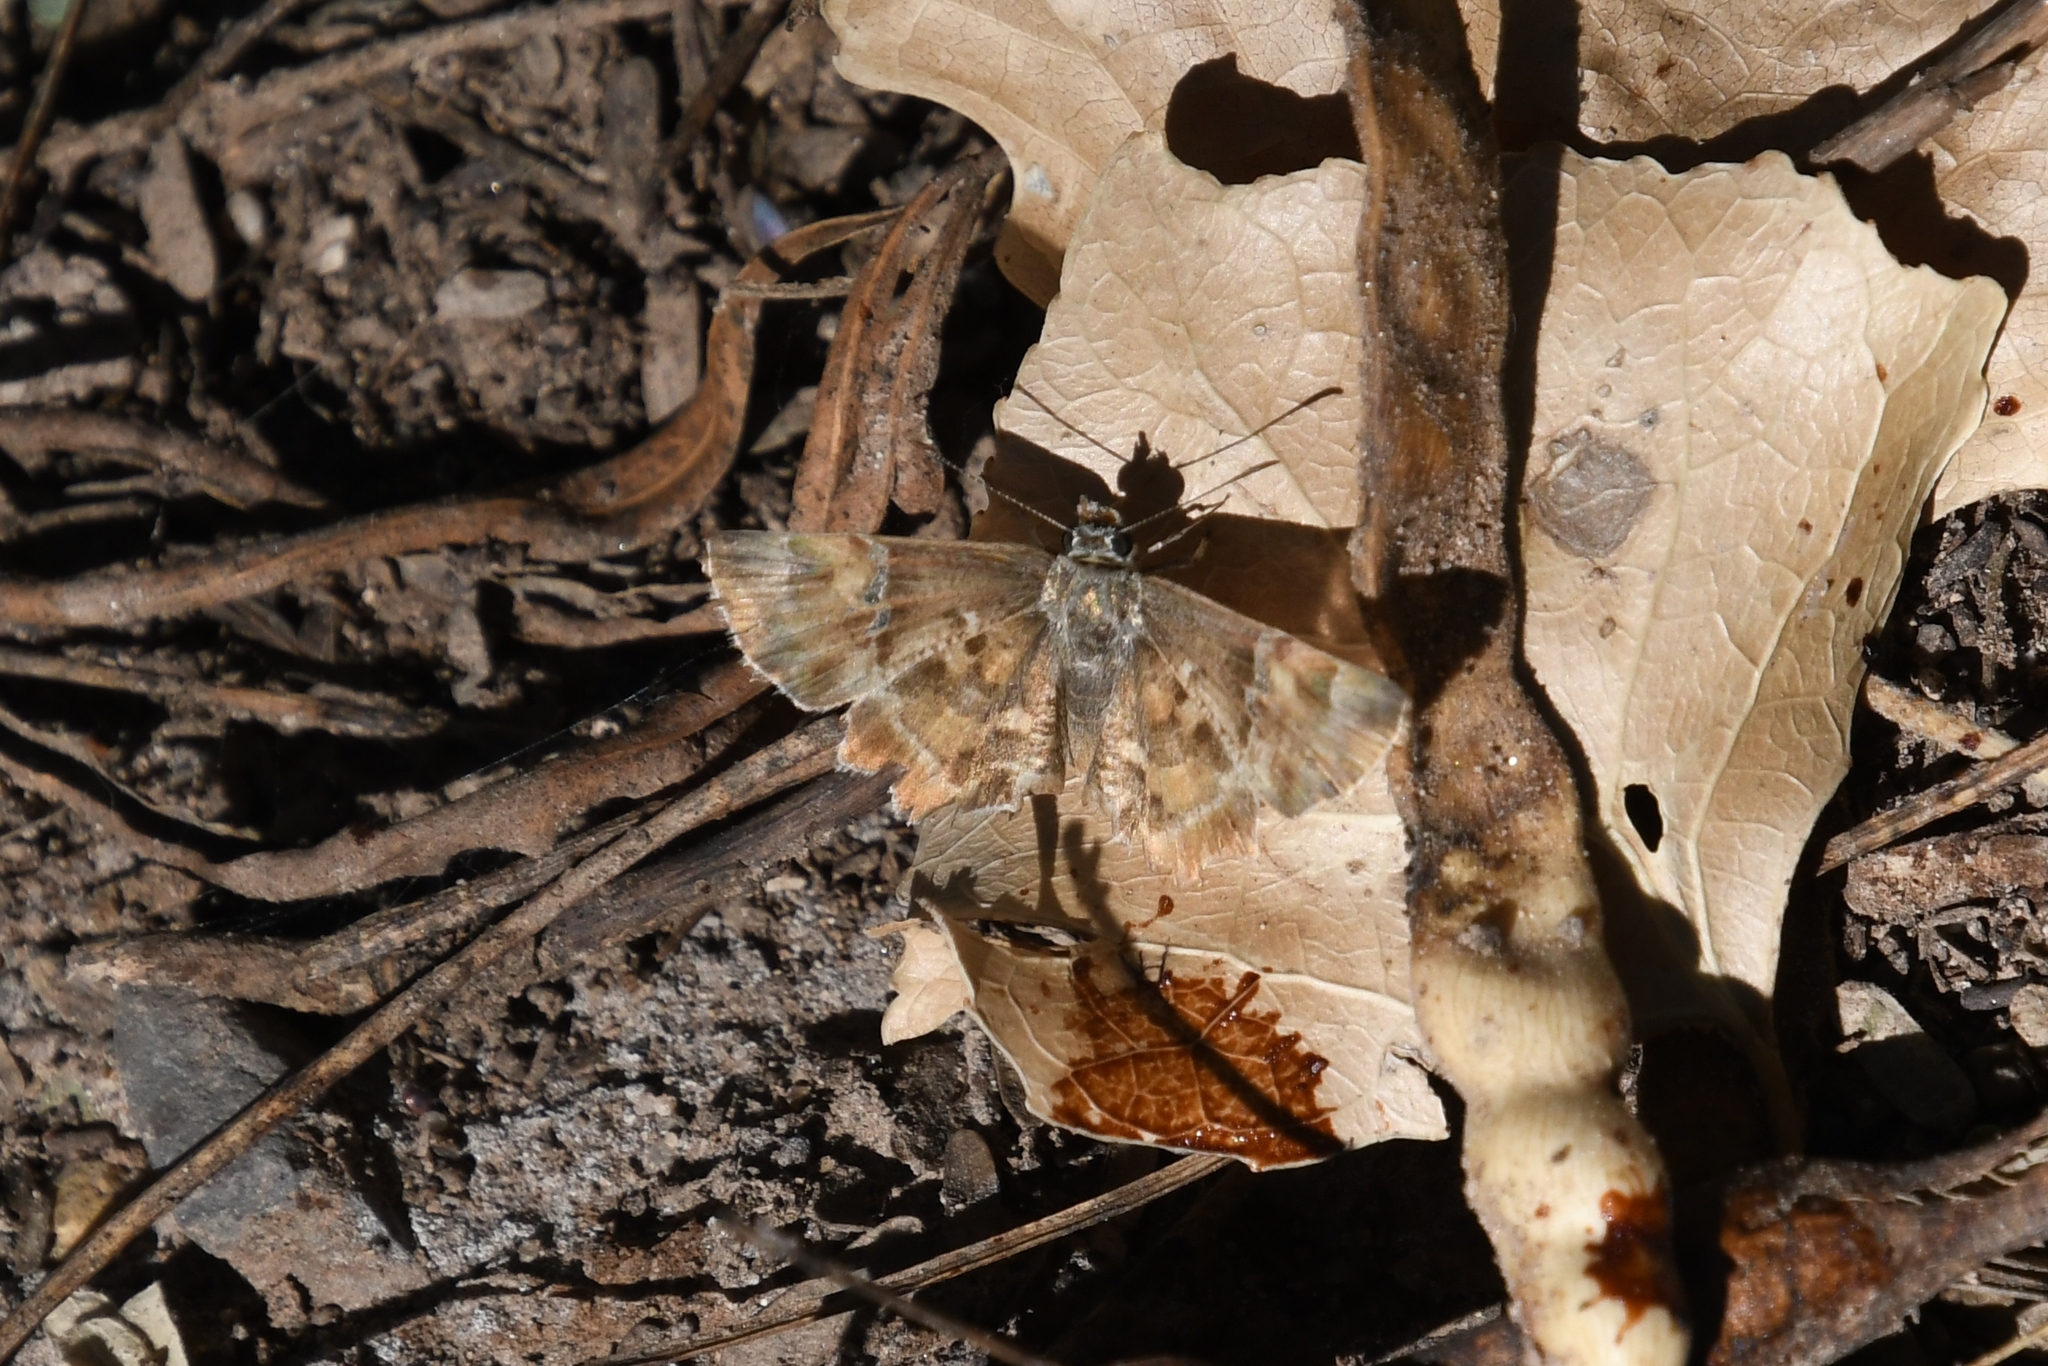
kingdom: Animalia
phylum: Arthropoda
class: Insecta
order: Lepidoptera
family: Hesperiidae
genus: Systasea
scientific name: Systasea zampa
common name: Arizona powdered-skipper
